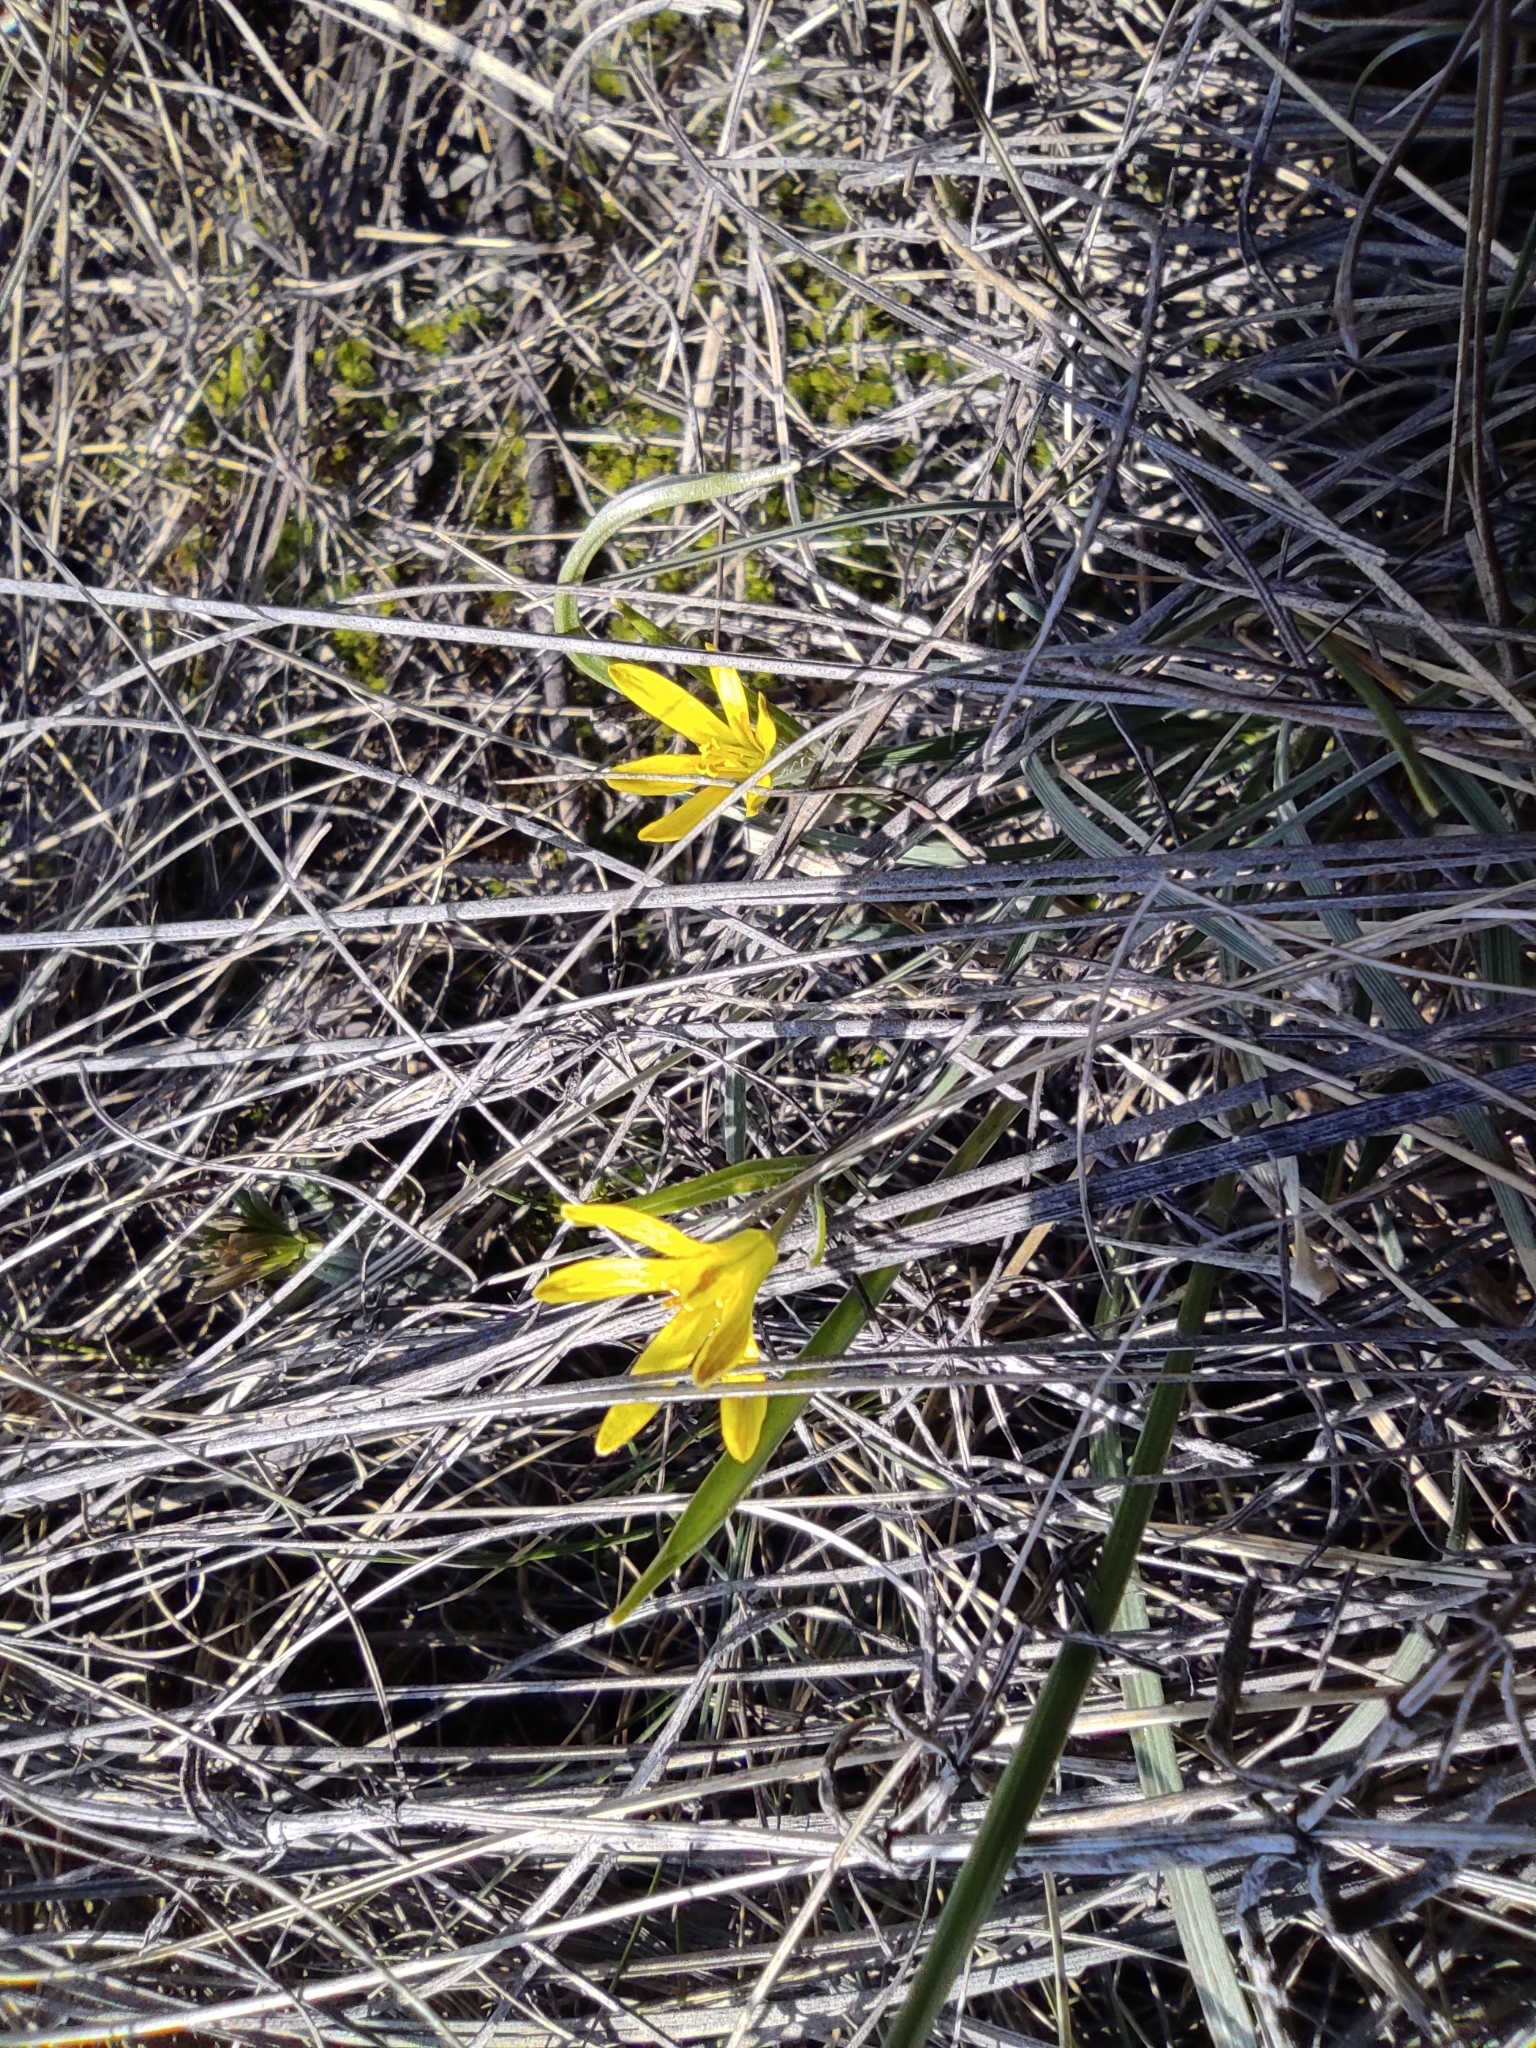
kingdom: Plantae
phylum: Tracheophyta
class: Liliopsida
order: Liliales
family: Liliaceae
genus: Gagea
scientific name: Gagea fedtschenkoana
